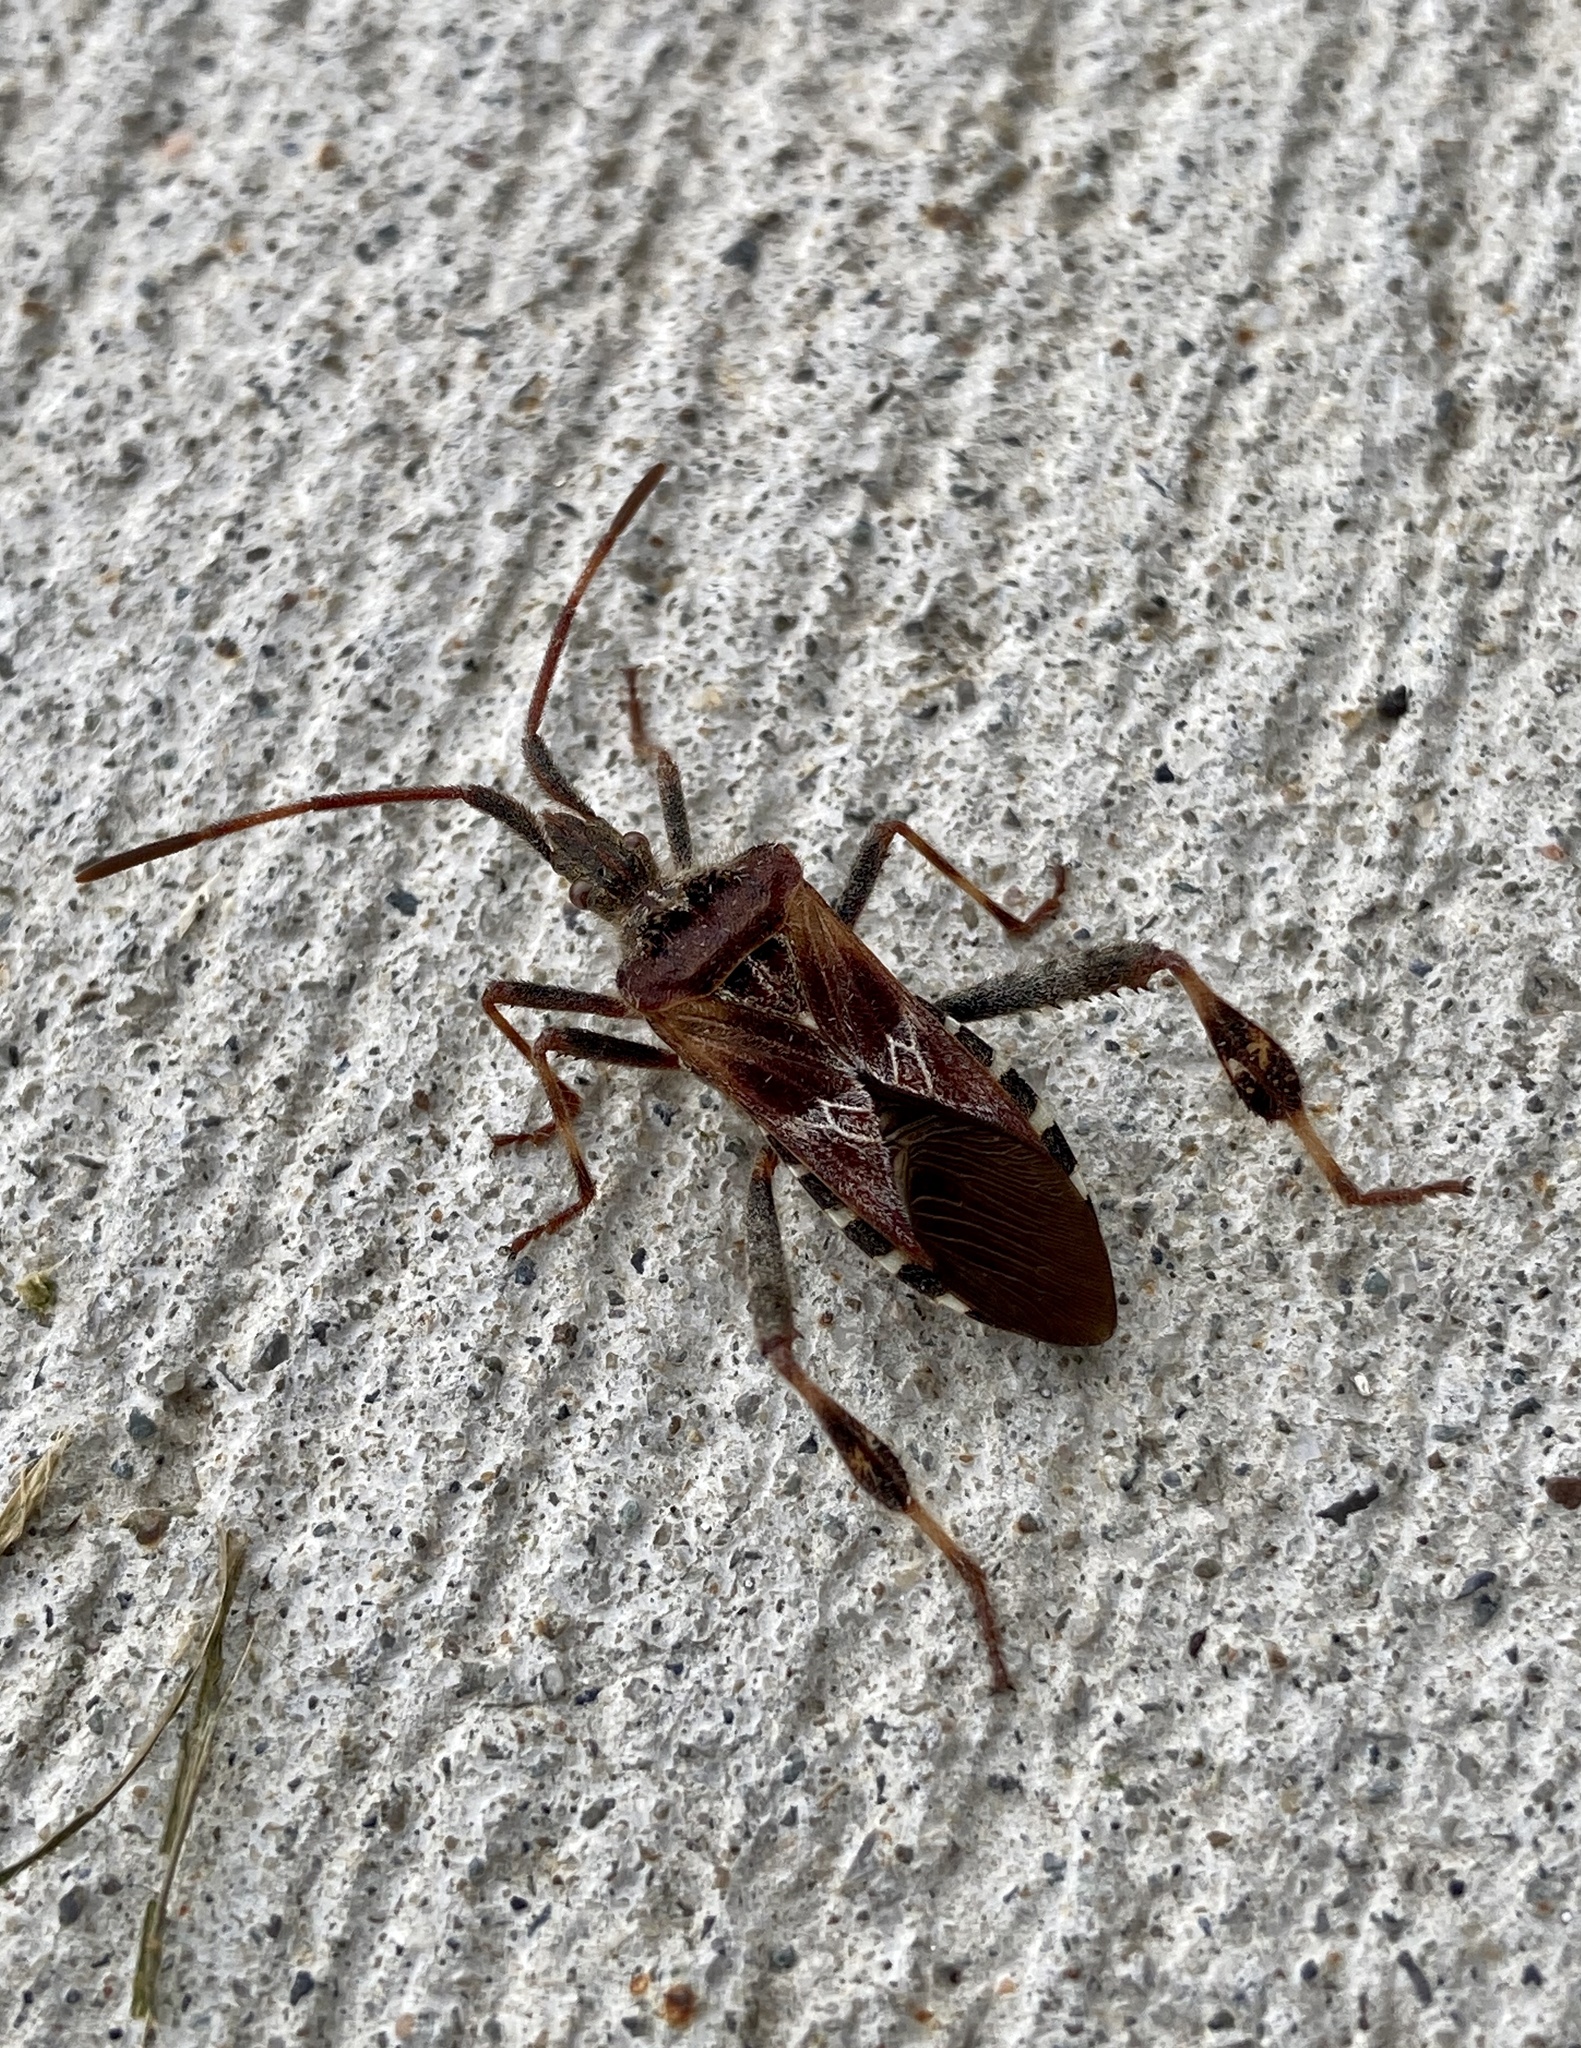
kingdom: Animalia
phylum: Arthropoda
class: Insecta
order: Hemiptera
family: Coreidae
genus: Leptoglossus
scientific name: Leptoglossus occidentalis
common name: Western conifer-seed bug
